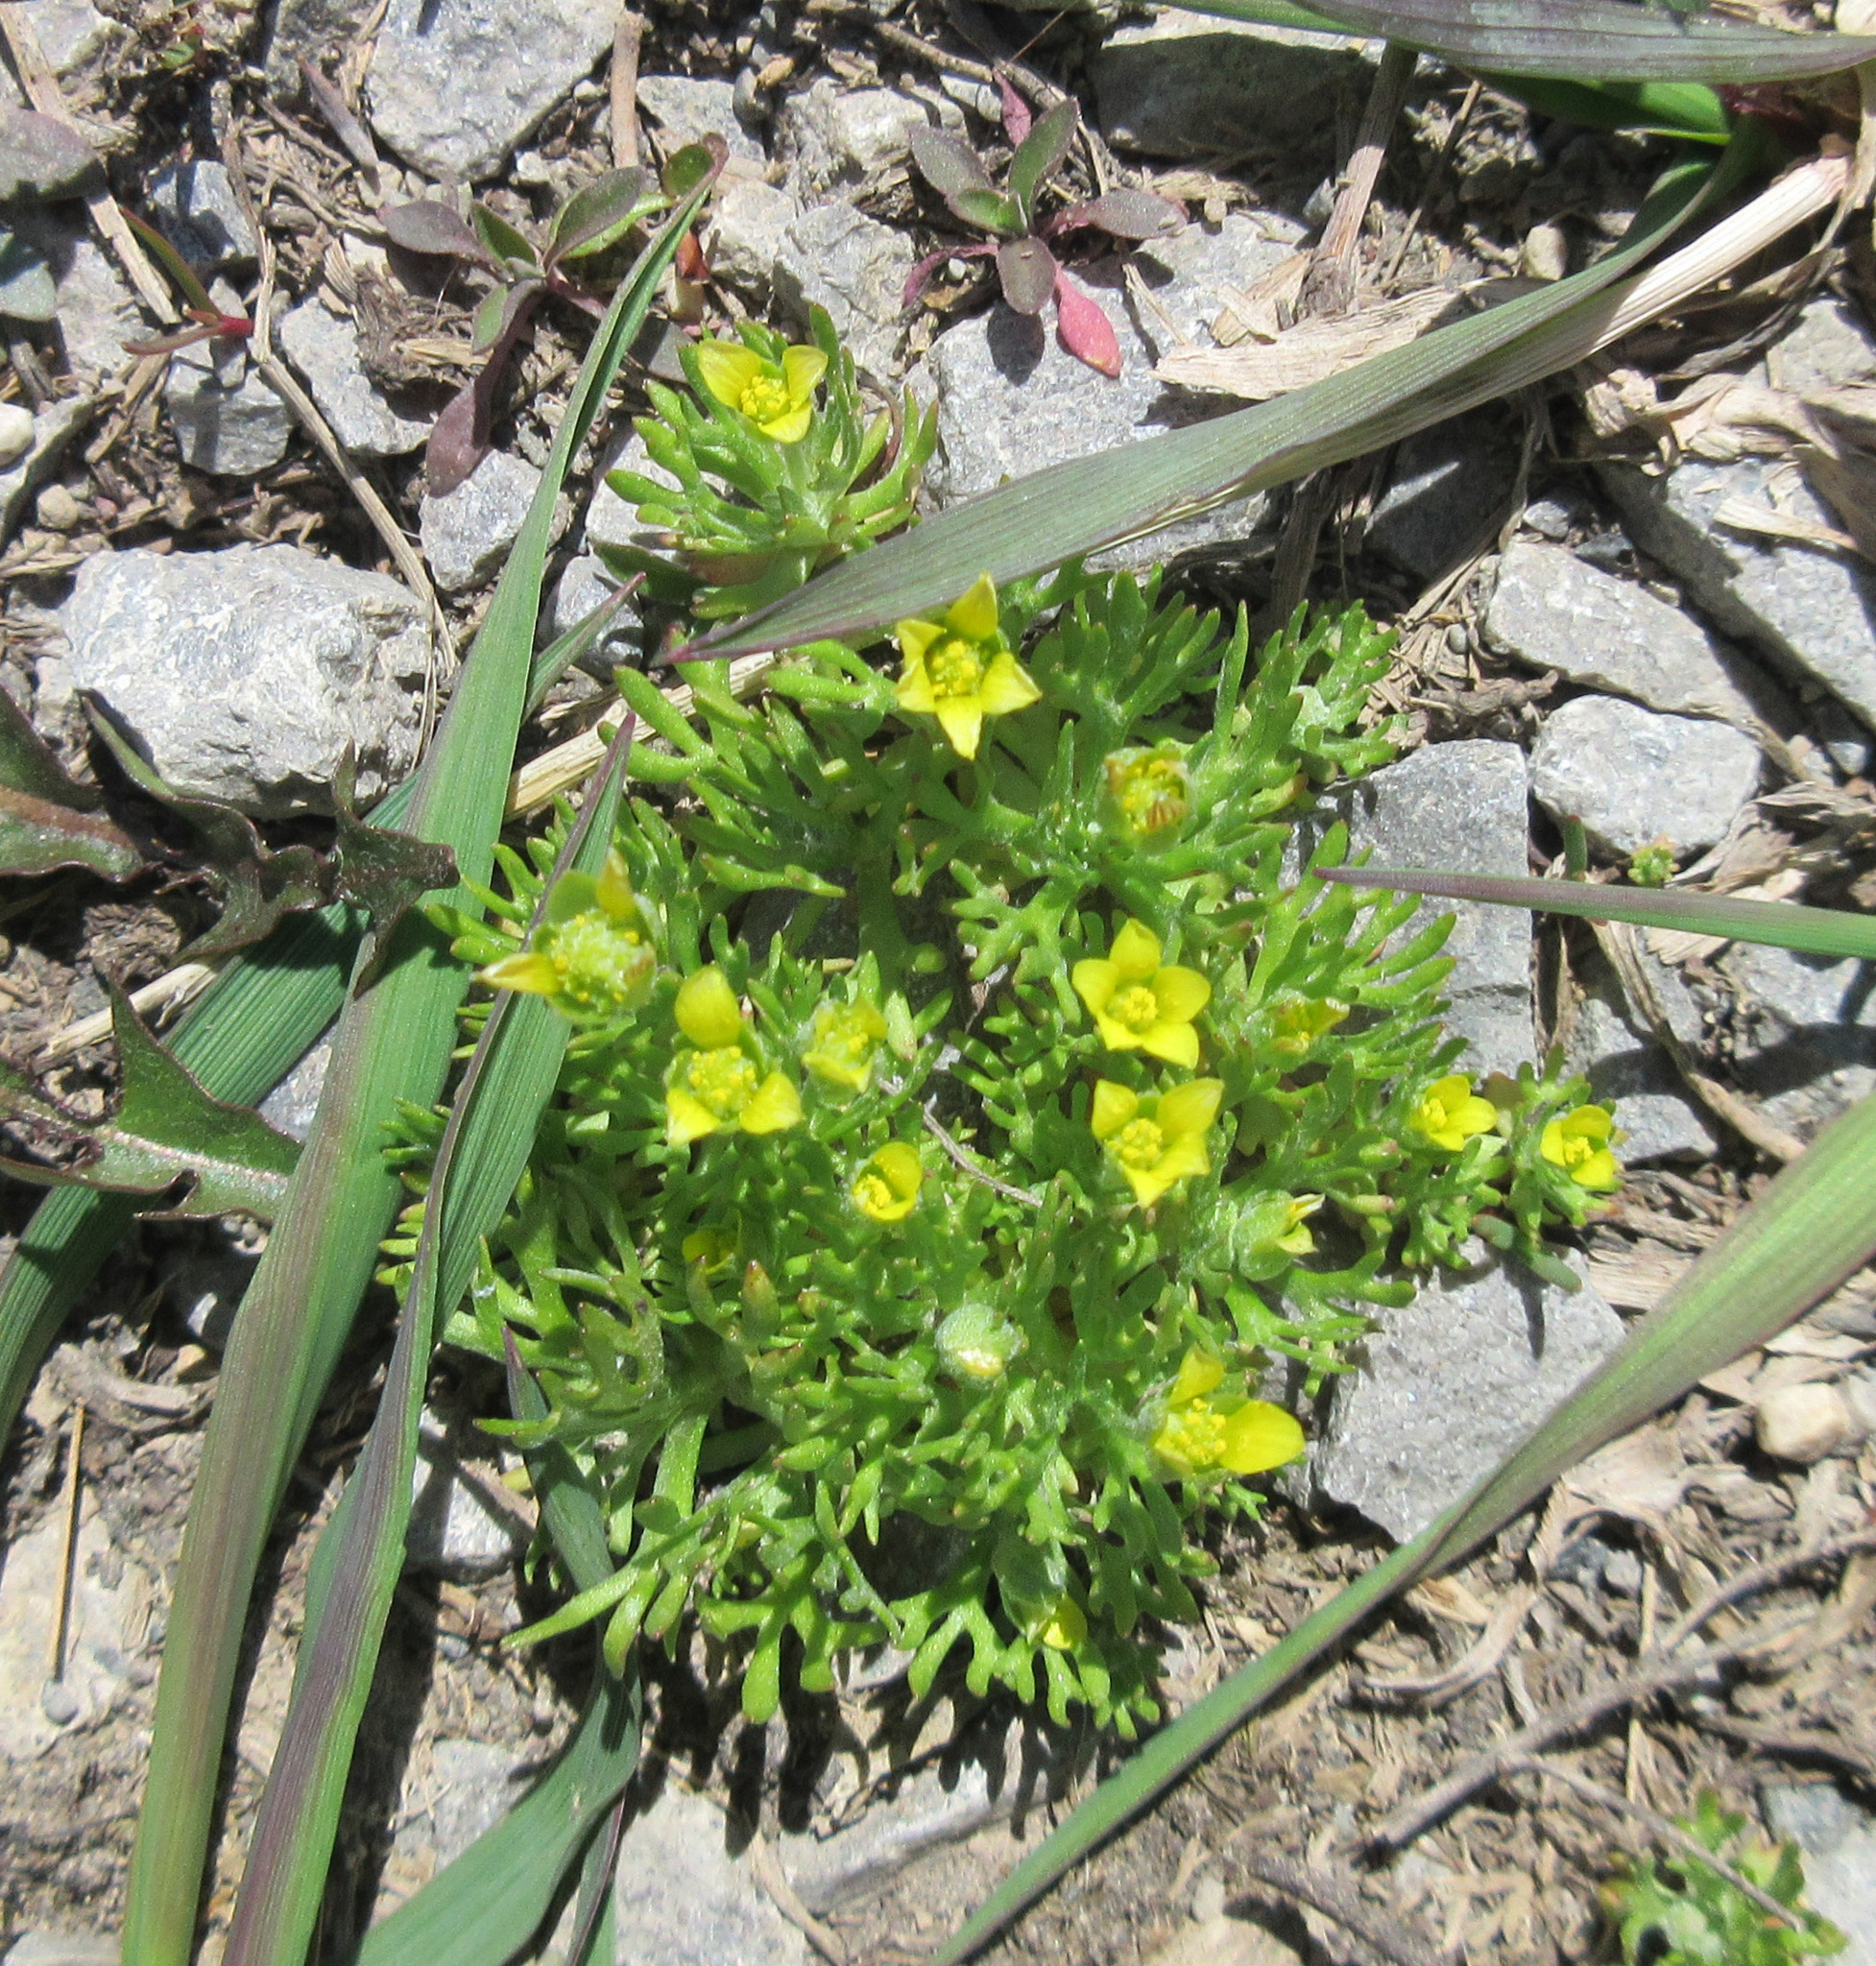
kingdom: Plantae
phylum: Tracheophyta
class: Magnoliopsida
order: Ranunculales
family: Ranunculaceae
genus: Ceratocephala
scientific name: Ceratocephala orthoceras
